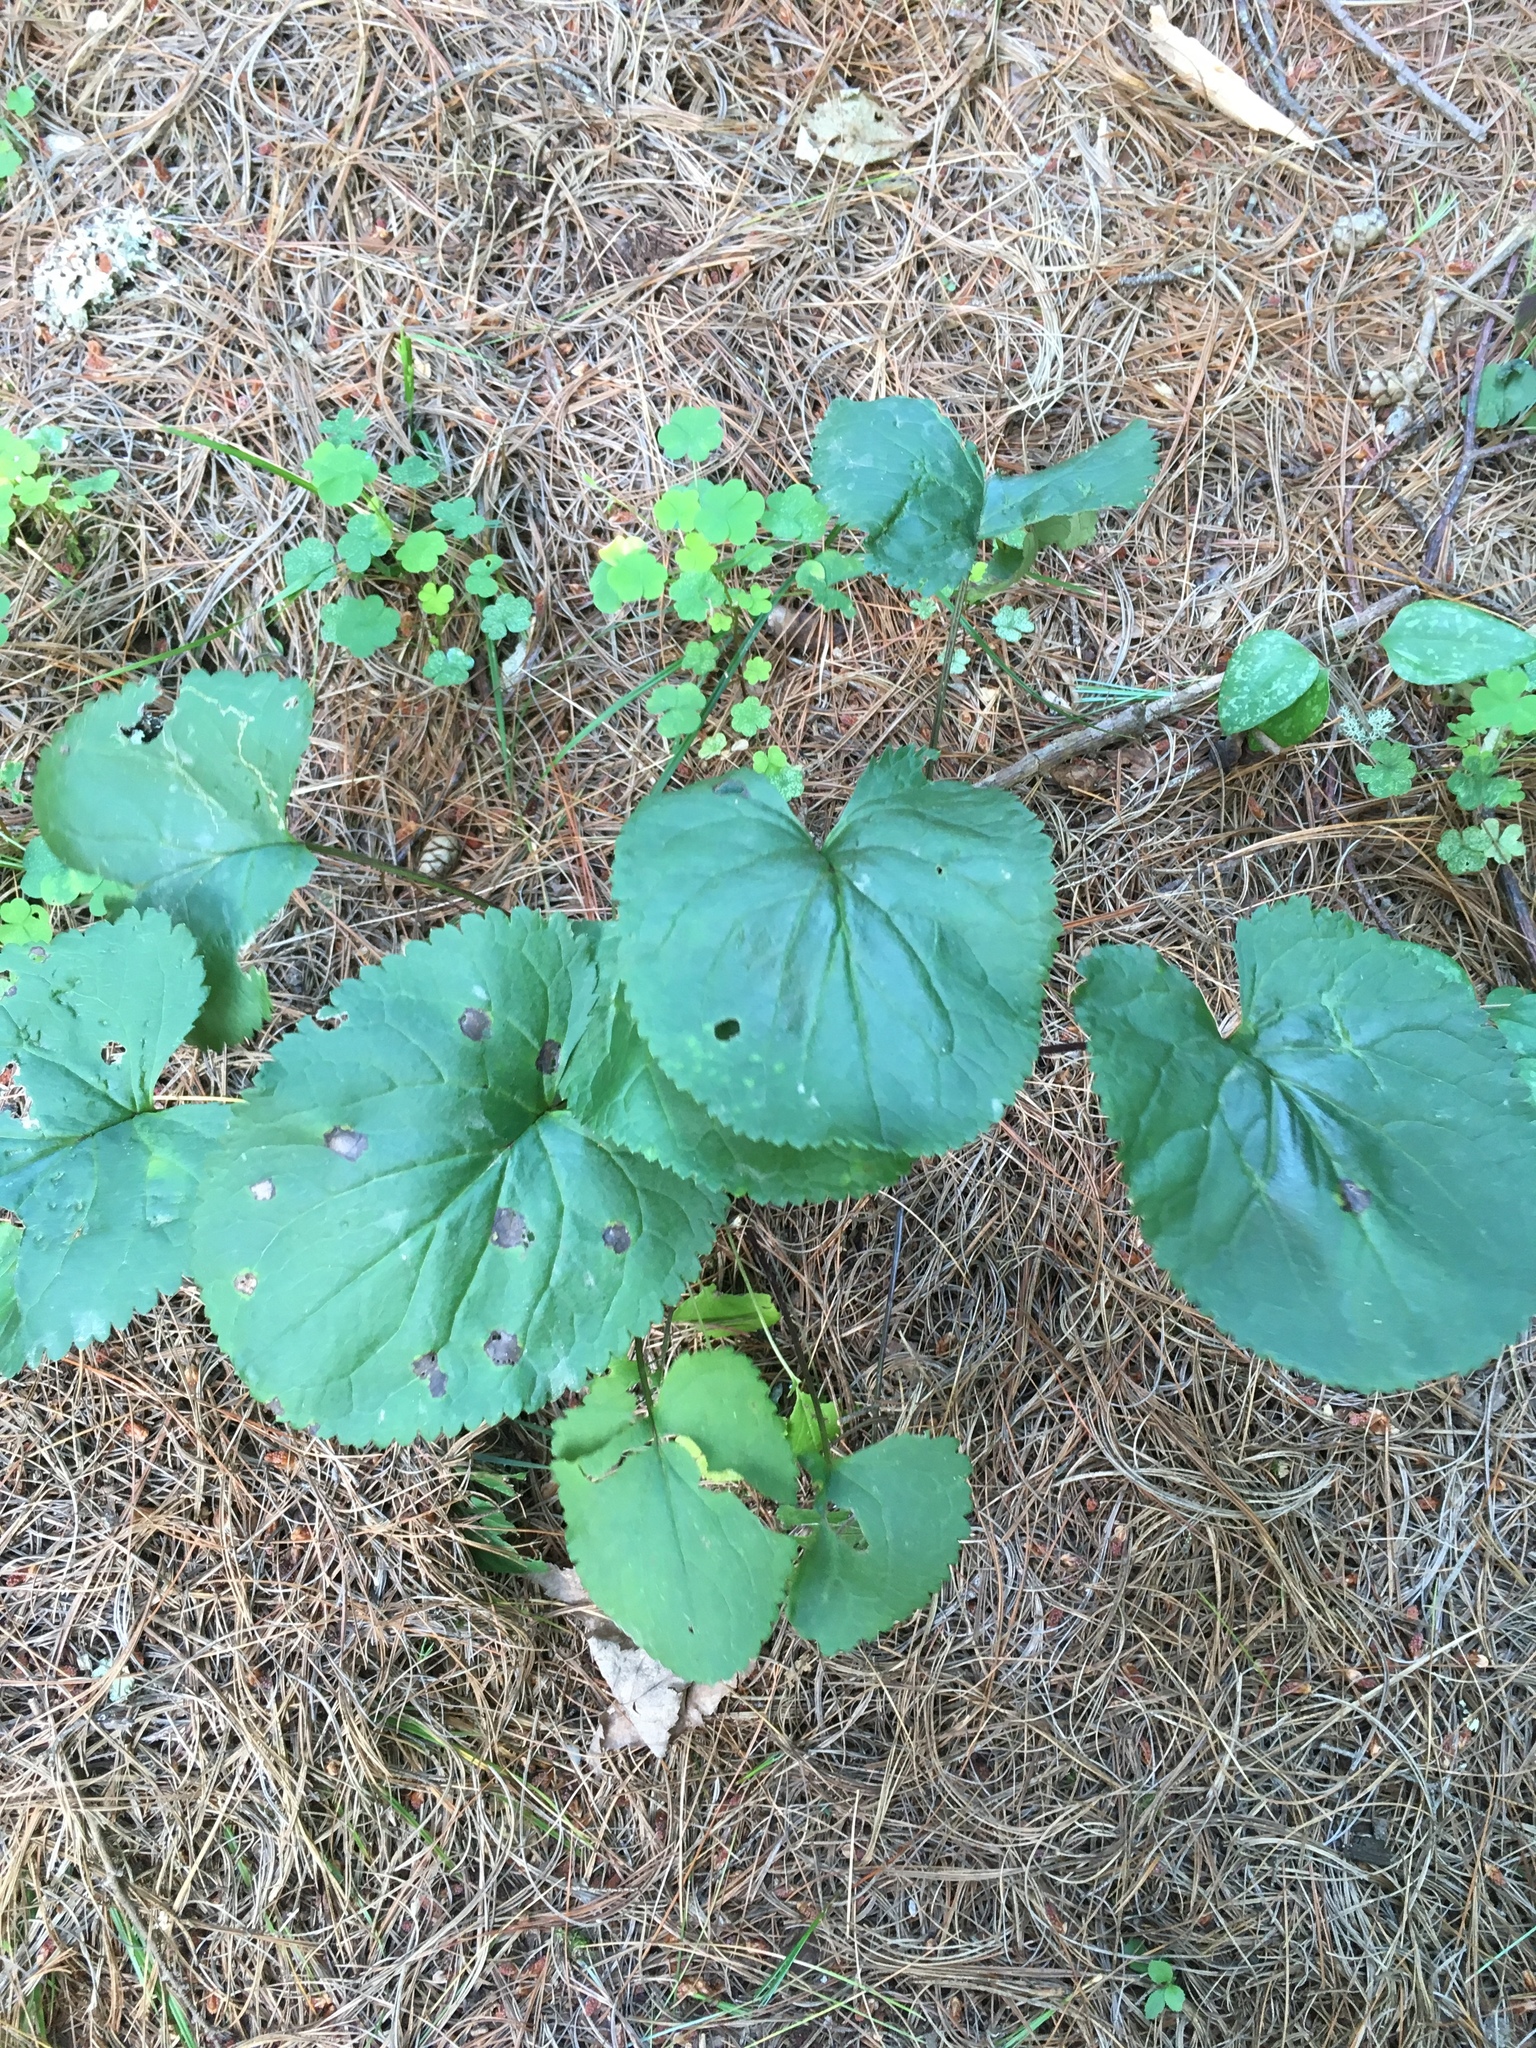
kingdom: Plantae
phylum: Tracheophyta
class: Magnoliopsida
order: Asterales
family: Asteraceae
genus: Packera
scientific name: Packera aurea
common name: Golden groundsel
